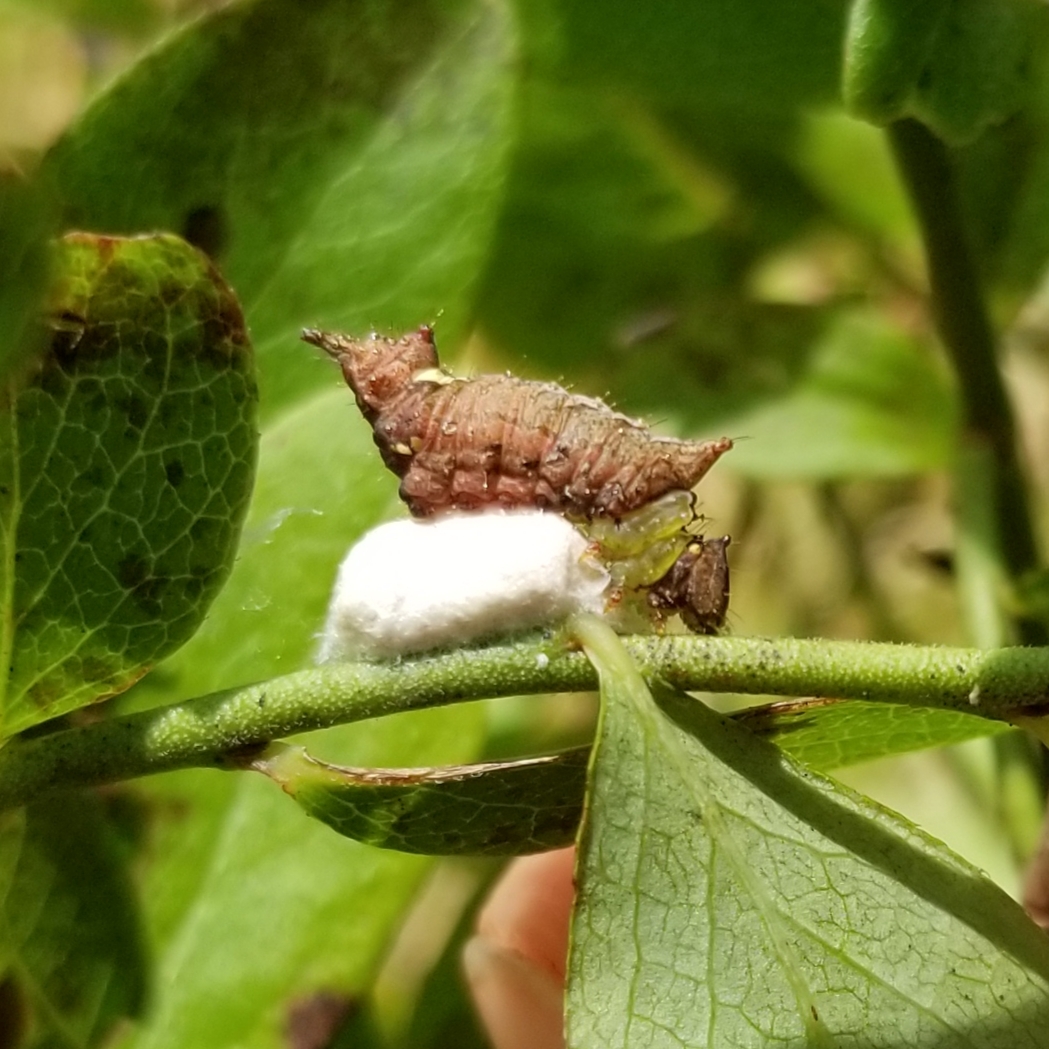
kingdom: Animalia
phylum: Arthropoda
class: Insecta
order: Lepidoptera
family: Notodontidae
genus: Schizura
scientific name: Schizura
